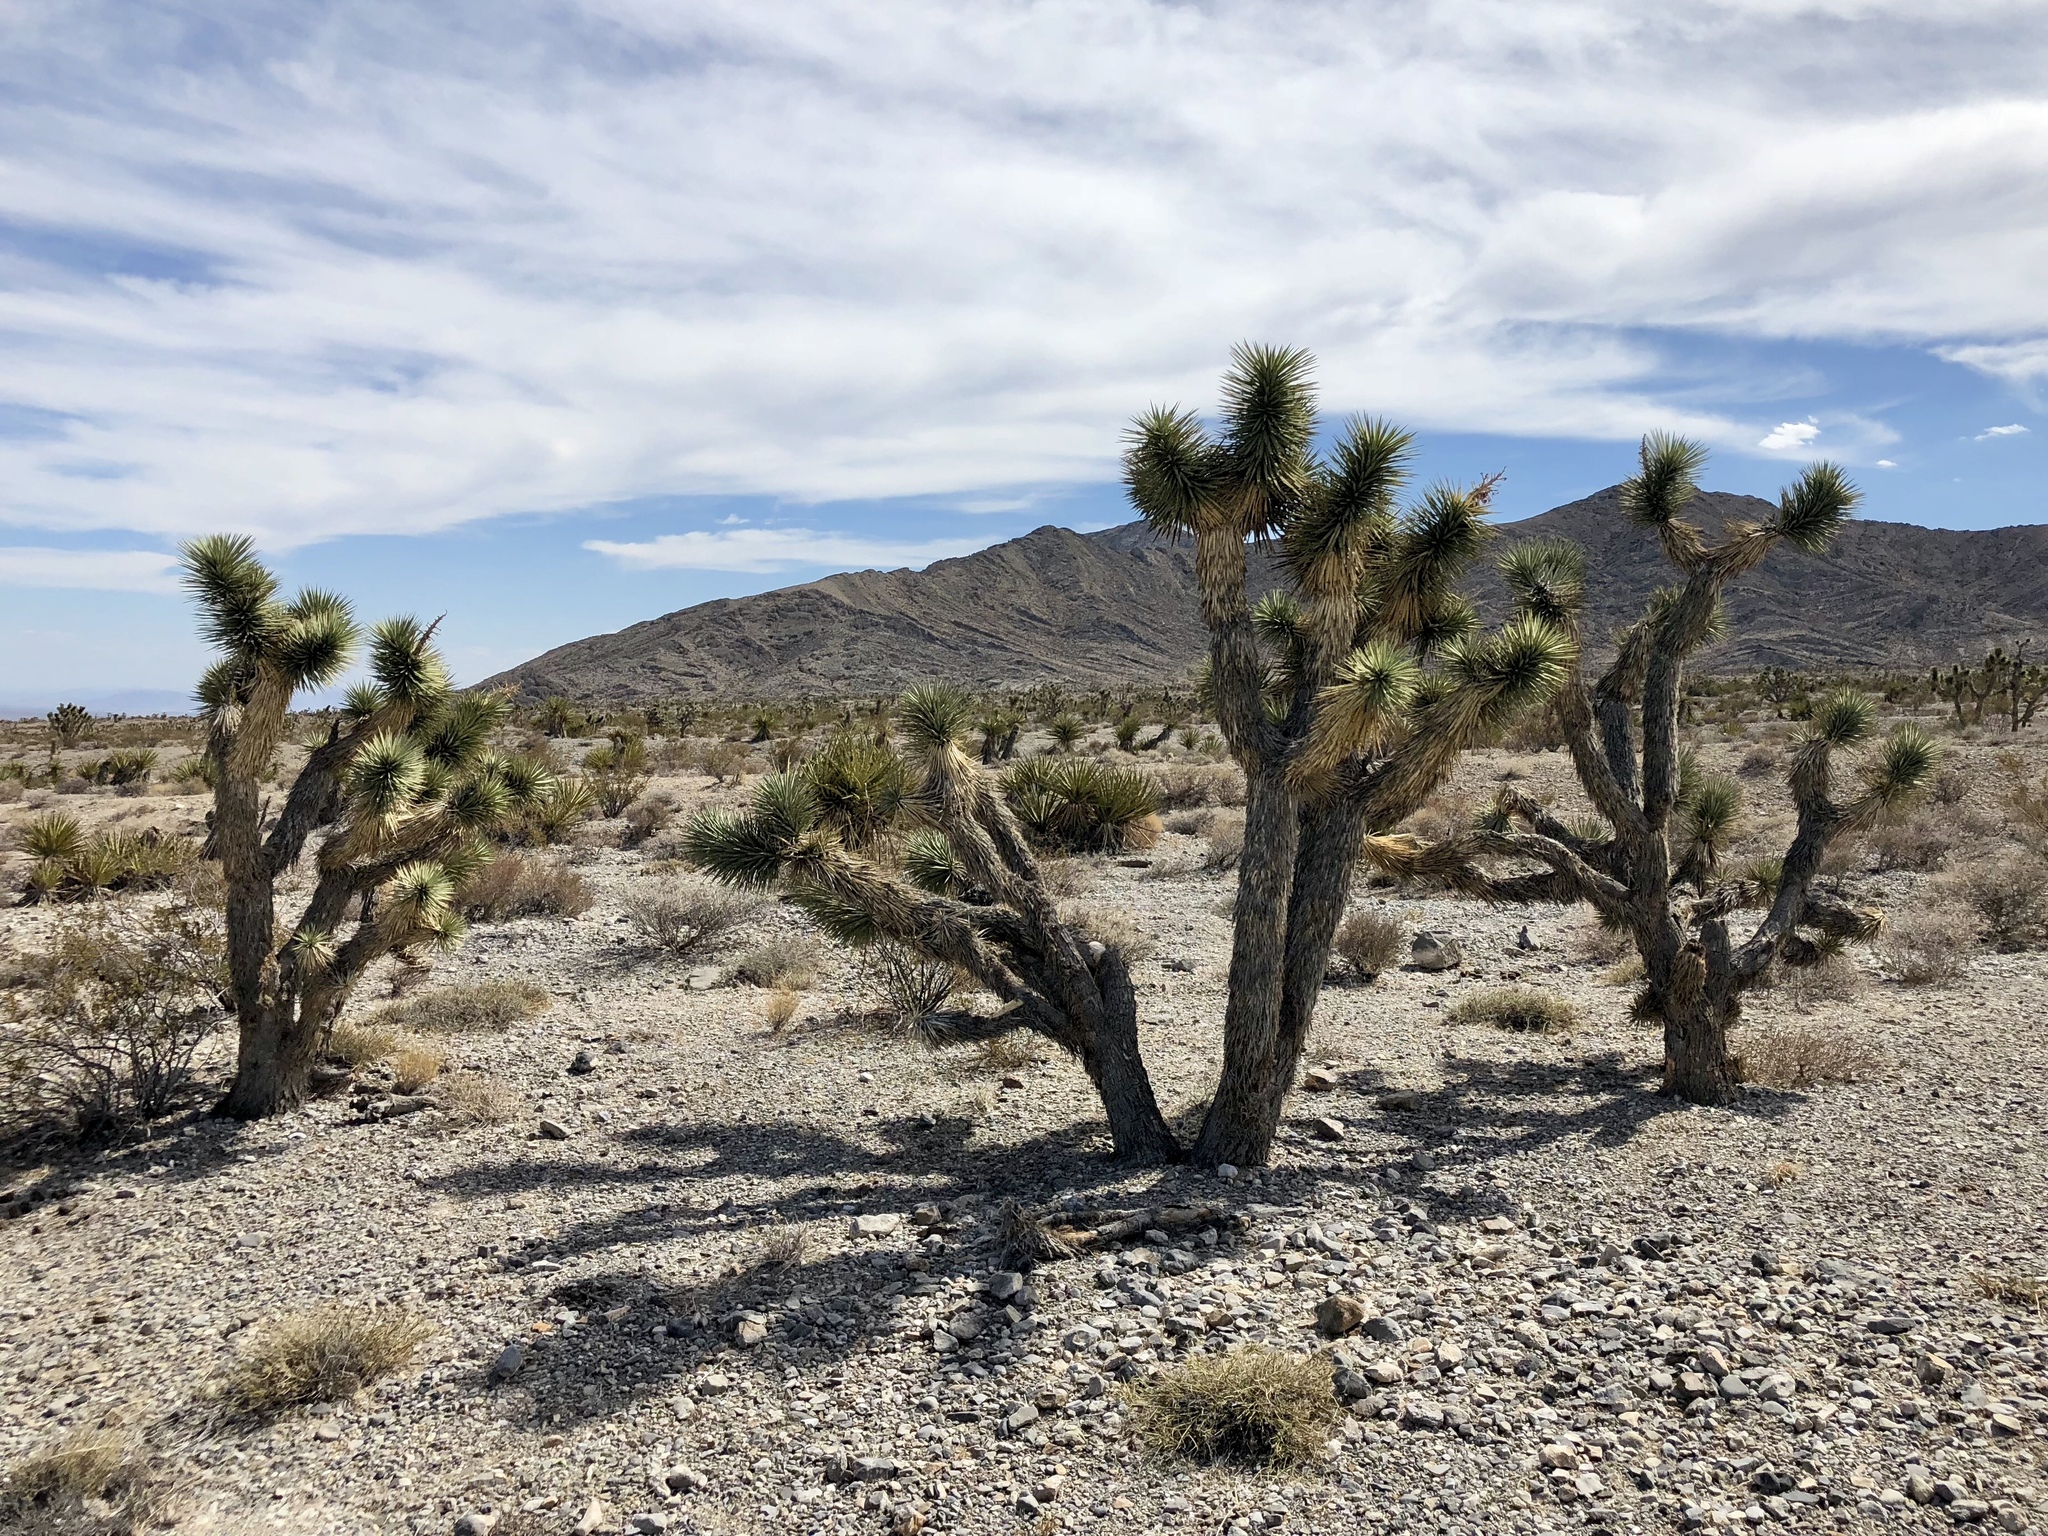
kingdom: Plantae
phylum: Tracheophyta
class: Liliopsida
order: Asparagales
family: Asparagaceae
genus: Yucca
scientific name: Yucca brevifolia
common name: Joshua tree
